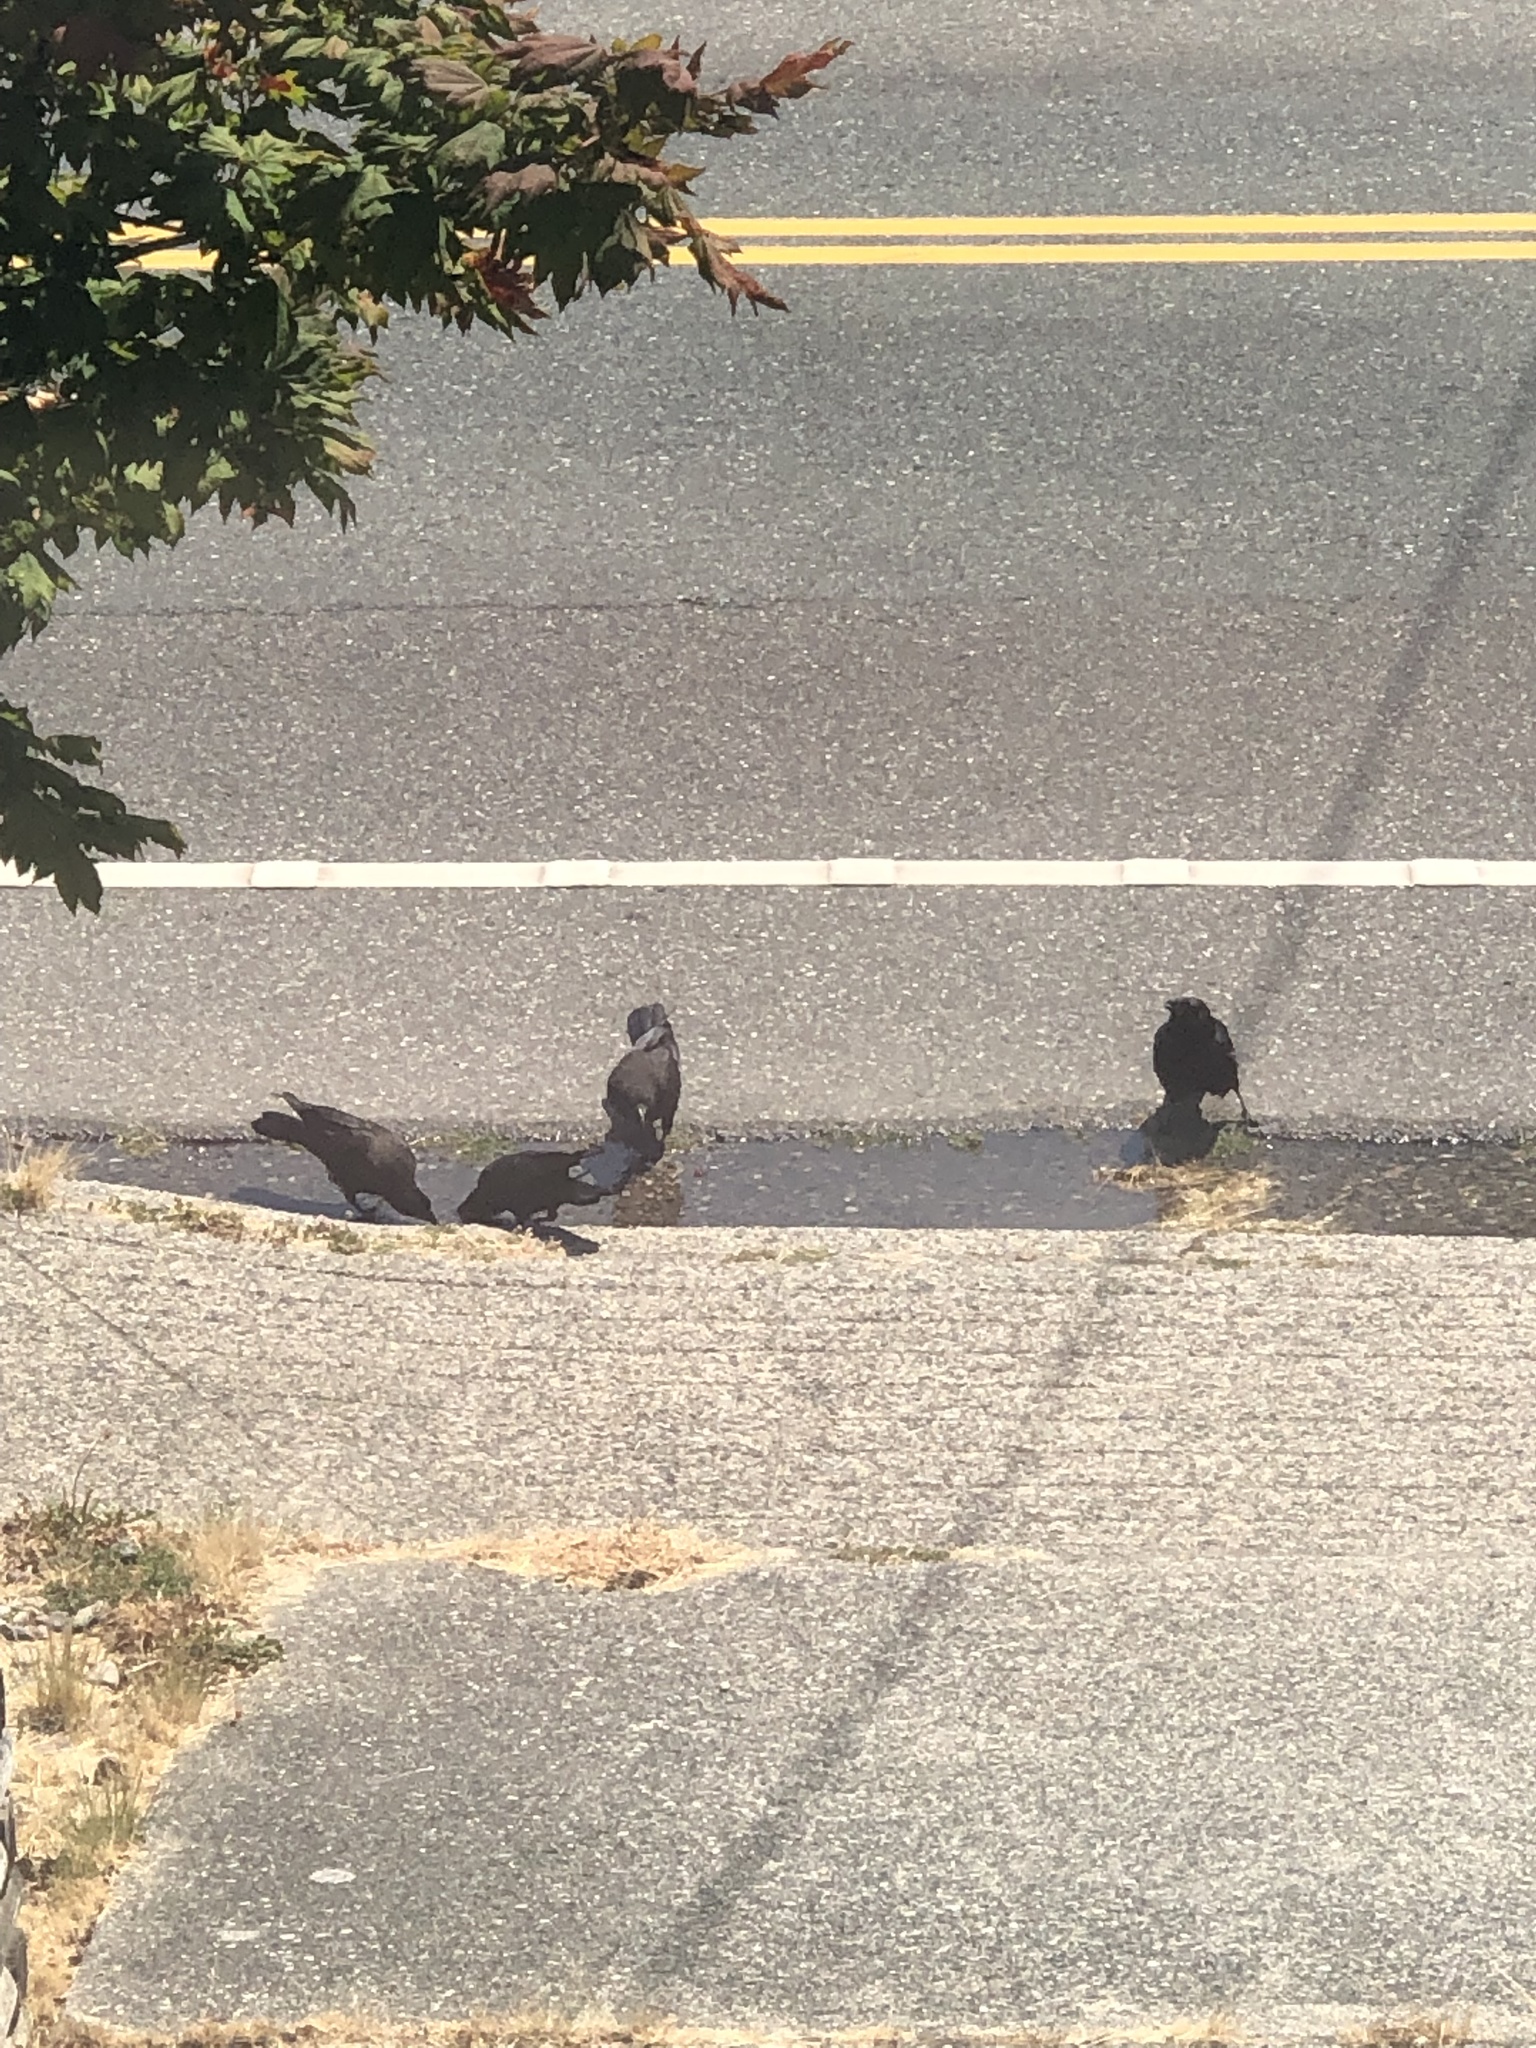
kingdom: Animalia
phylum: Chordata
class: Aves
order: Passeriformes
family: Corvidae
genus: Corvus
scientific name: Corvus brachyrhynchos
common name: American crow
